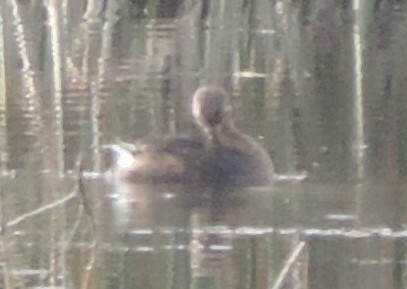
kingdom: Animalia
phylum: Chordata
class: Aves
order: Podicipediformes
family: Podicipedidae
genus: Podilymbus
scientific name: Podilymbus podiceps
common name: Pied-billed grebe
